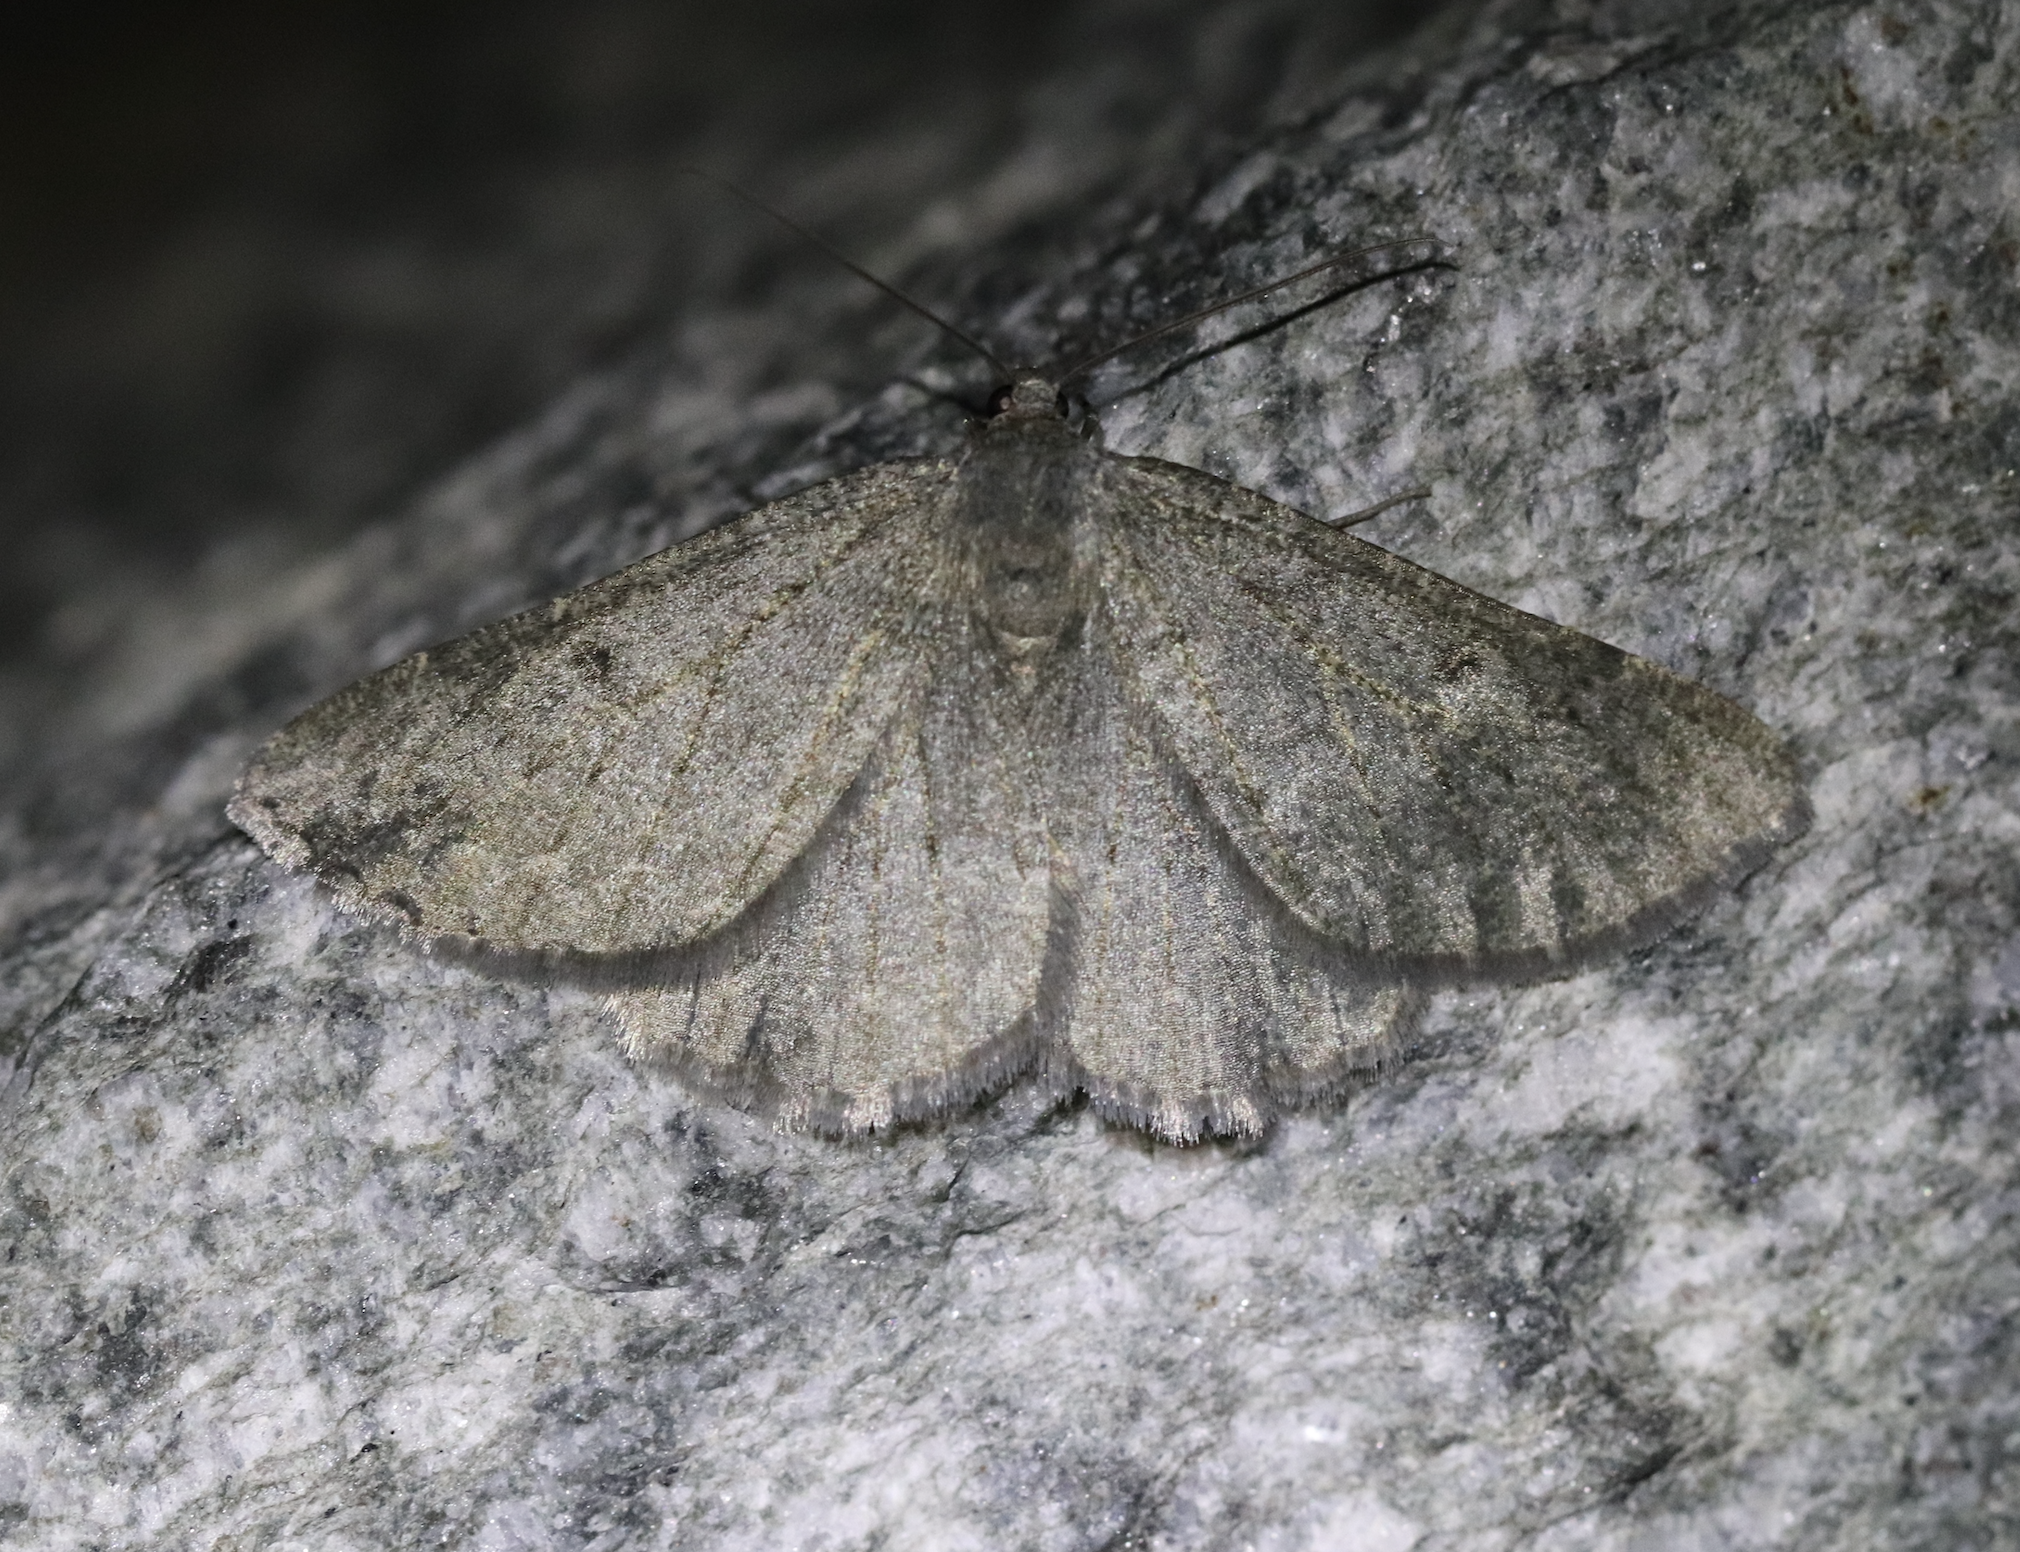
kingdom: Animalia
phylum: Arthropoda
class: Insecta
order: Lepidoptera
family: Geometridae
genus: Gnophos
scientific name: Gnophos obfuscata
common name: Scottish annulet
